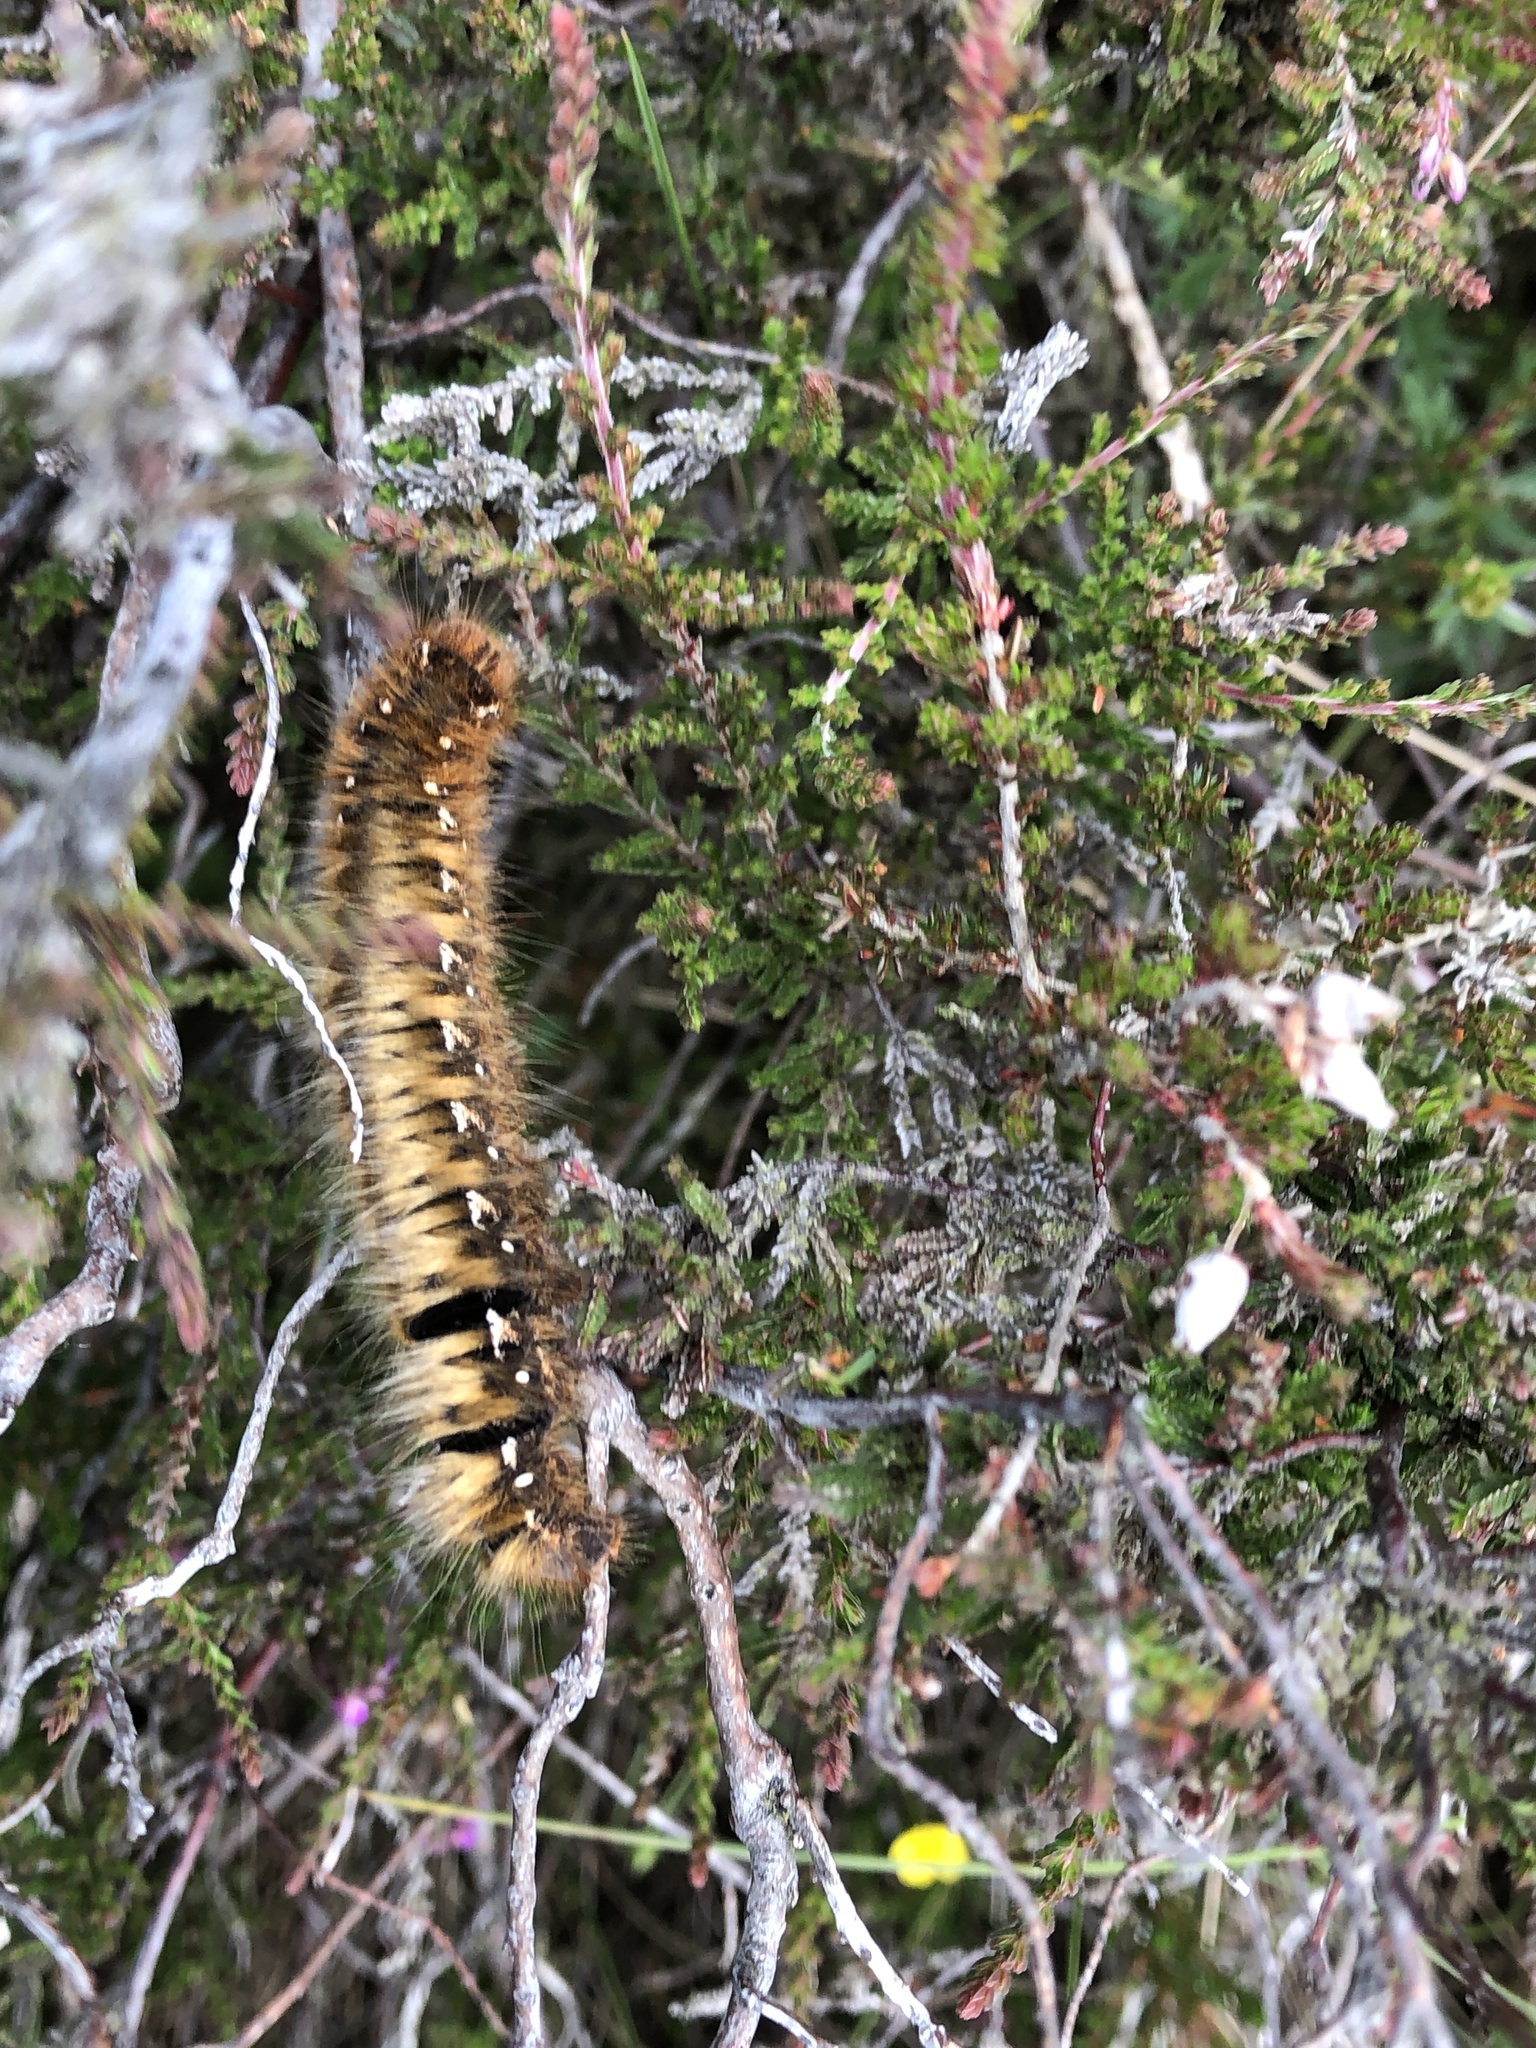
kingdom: Animalia
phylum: Arthropoda
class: Insecta
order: Lepidoptera
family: Lasiocampidae
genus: Lasiocampa
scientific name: Lasiocampa quercus
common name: Oak eggar
